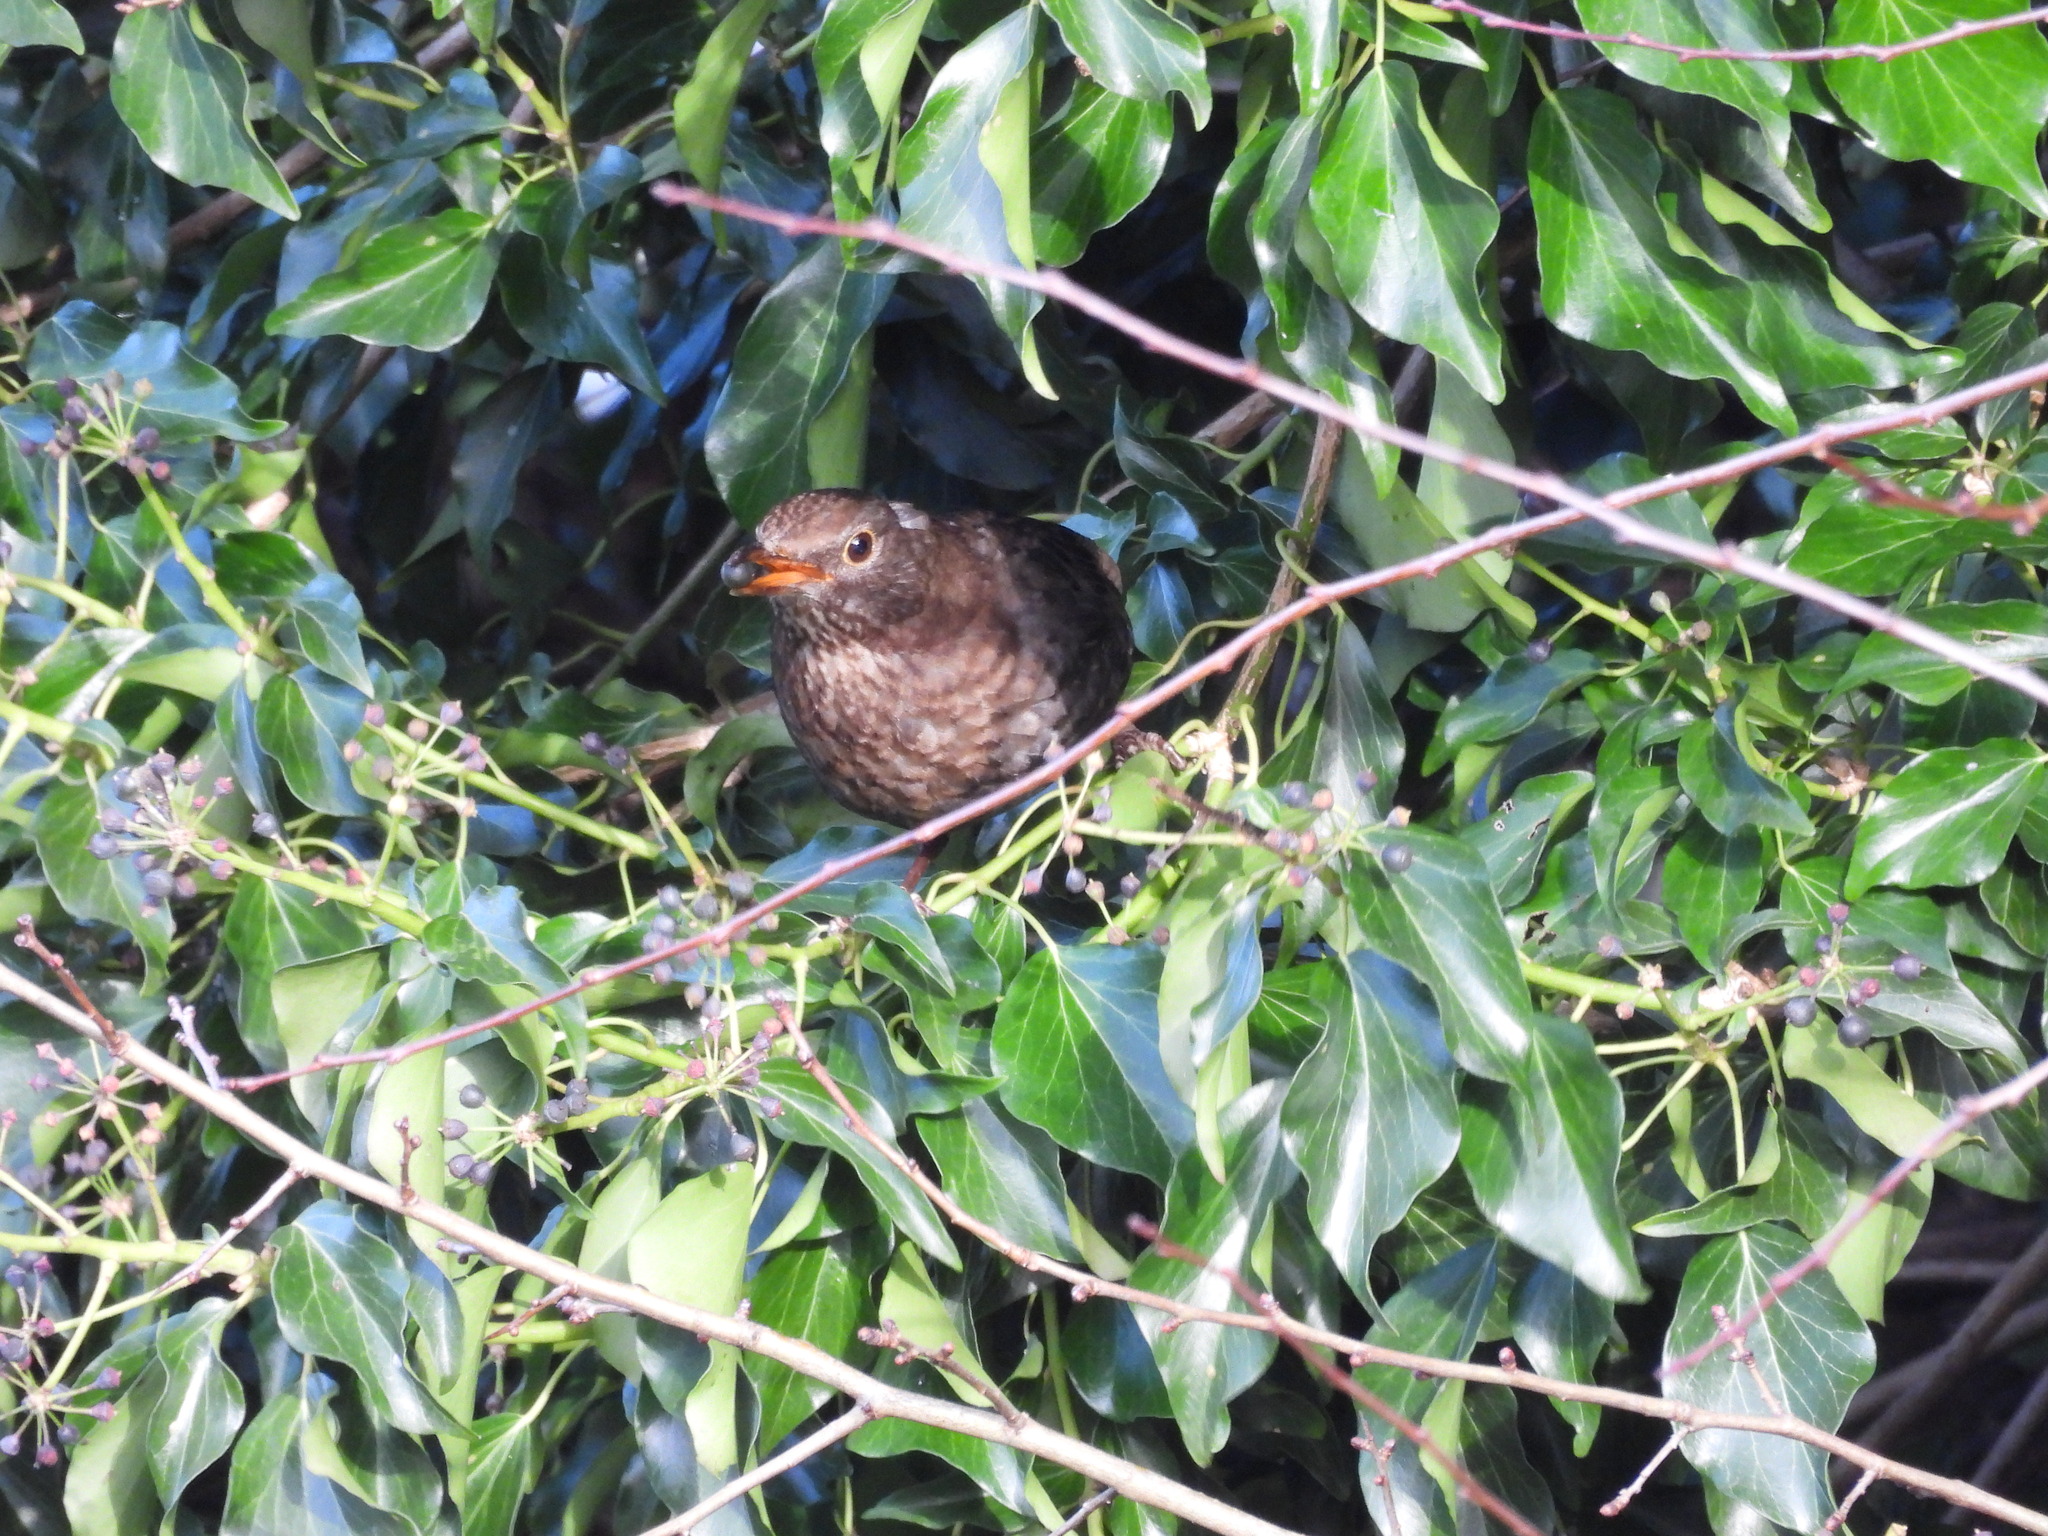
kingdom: Animalia
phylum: Chordata
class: Aves
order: Passeriformes
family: Turdidae
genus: Turdus
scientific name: Turdus merula
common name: Common blackbird
